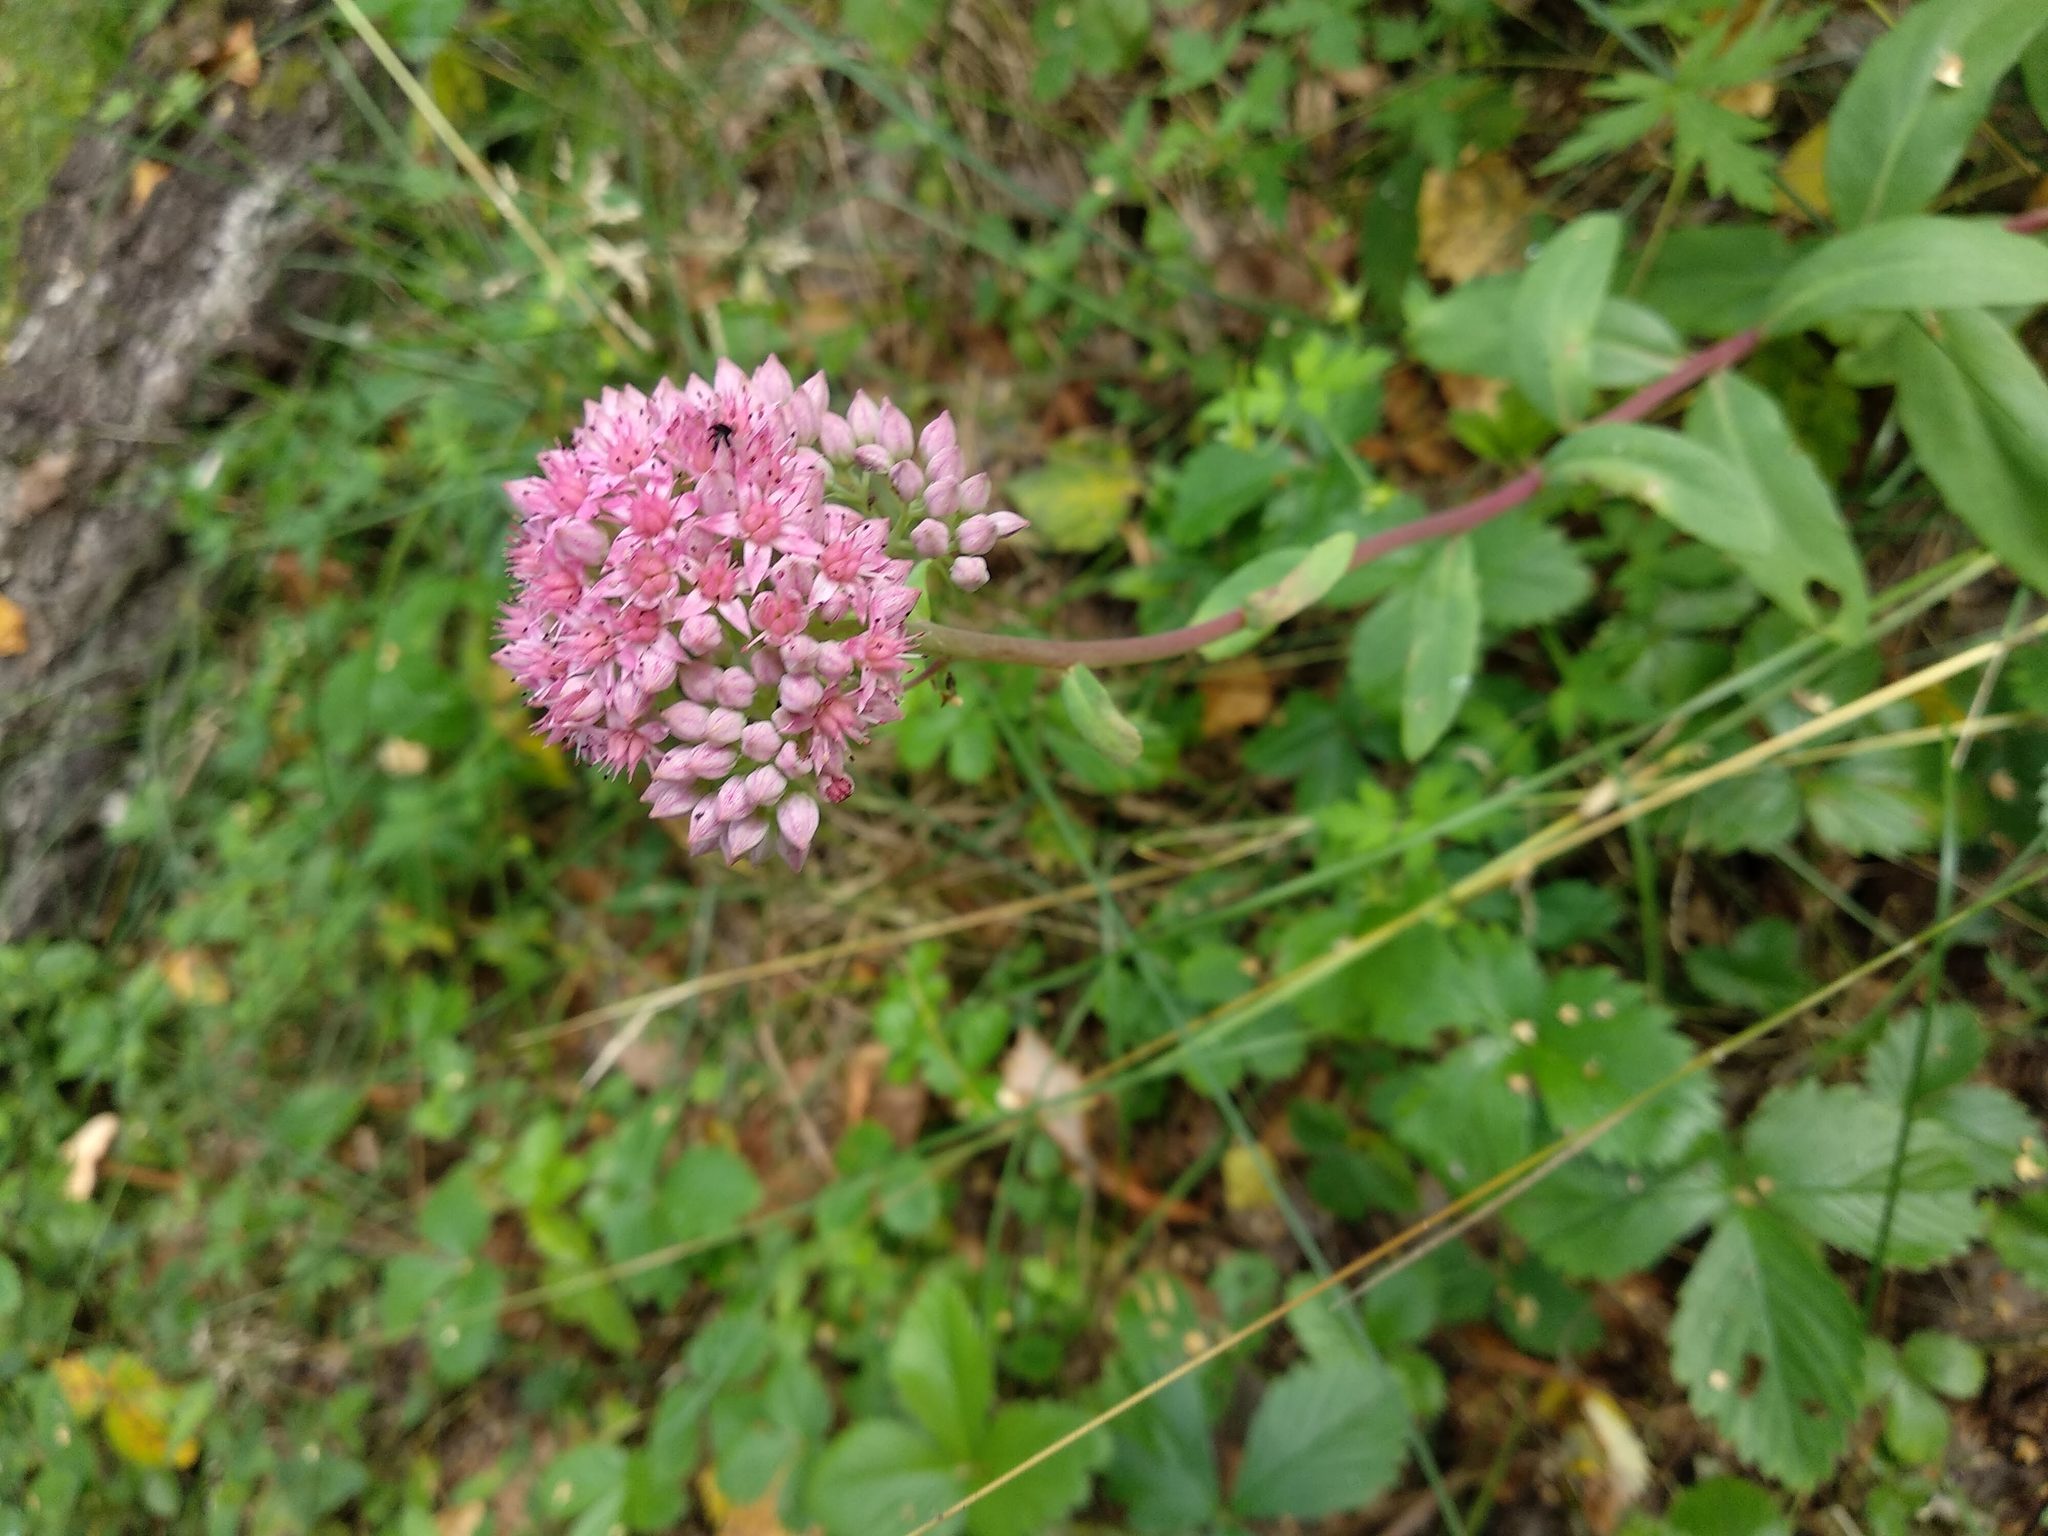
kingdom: Plantae
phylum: Tracheophyta
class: Magnoliopsida
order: Saxifragales
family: Crassulaceae
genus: Hylotelephium
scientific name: Hylotelephium telephium
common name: Live-forever
